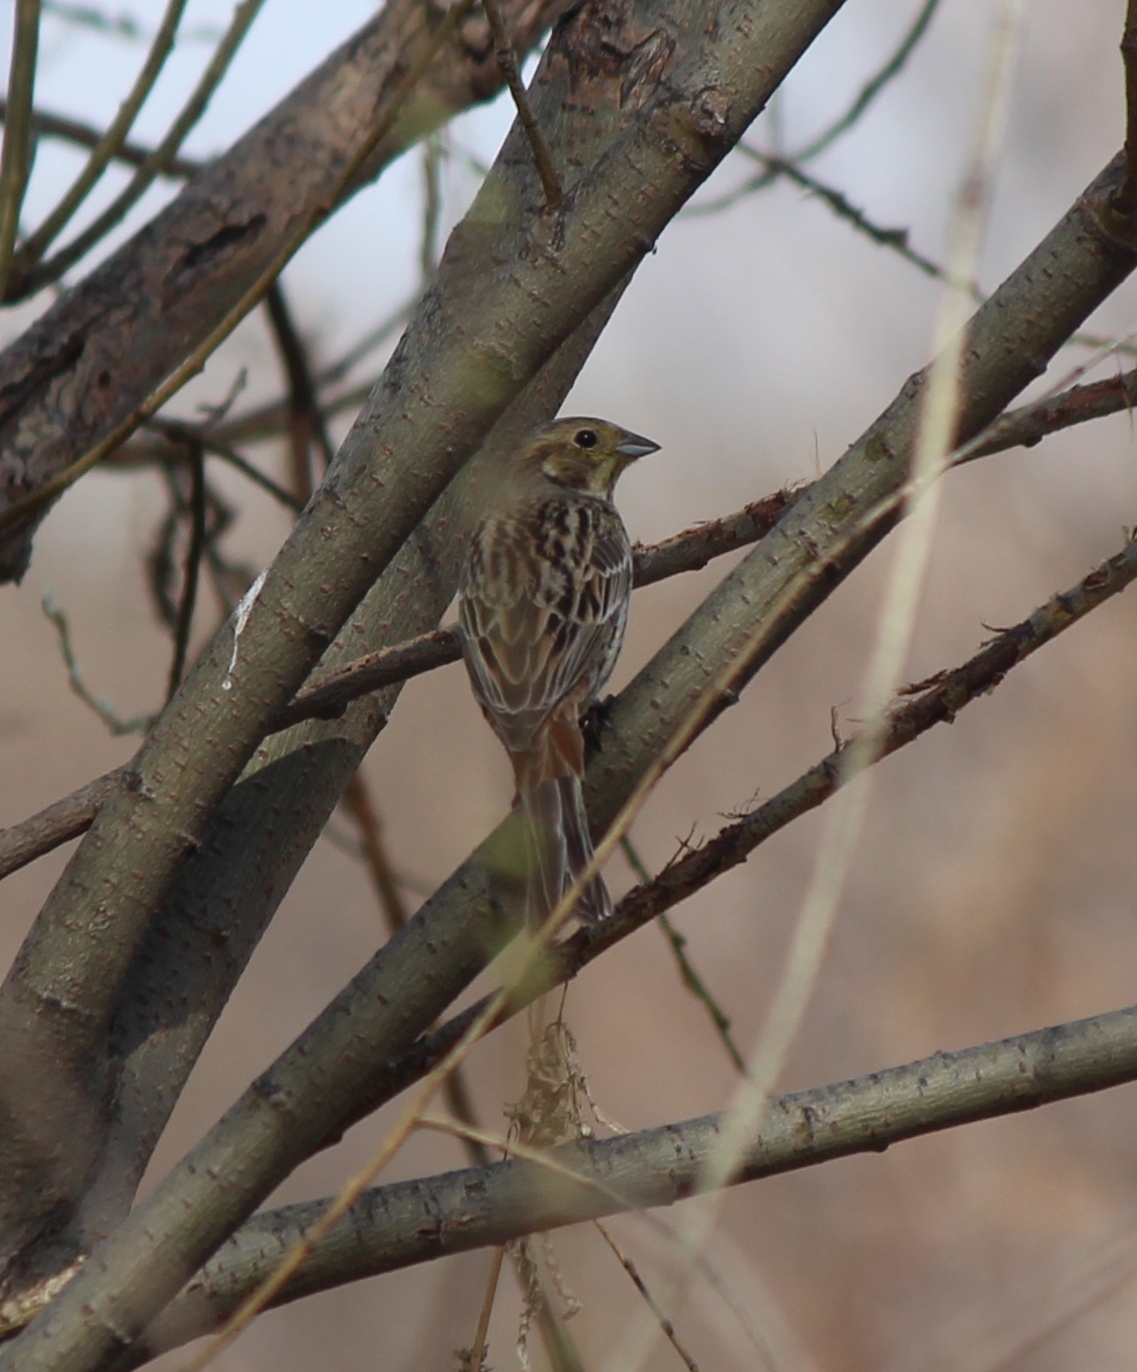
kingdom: Animalia
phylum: Chordata
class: Aves
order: Passeriformes
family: Emberizidae
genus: Emberiza
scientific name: Emberiza citrinella
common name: Yellowhammer
